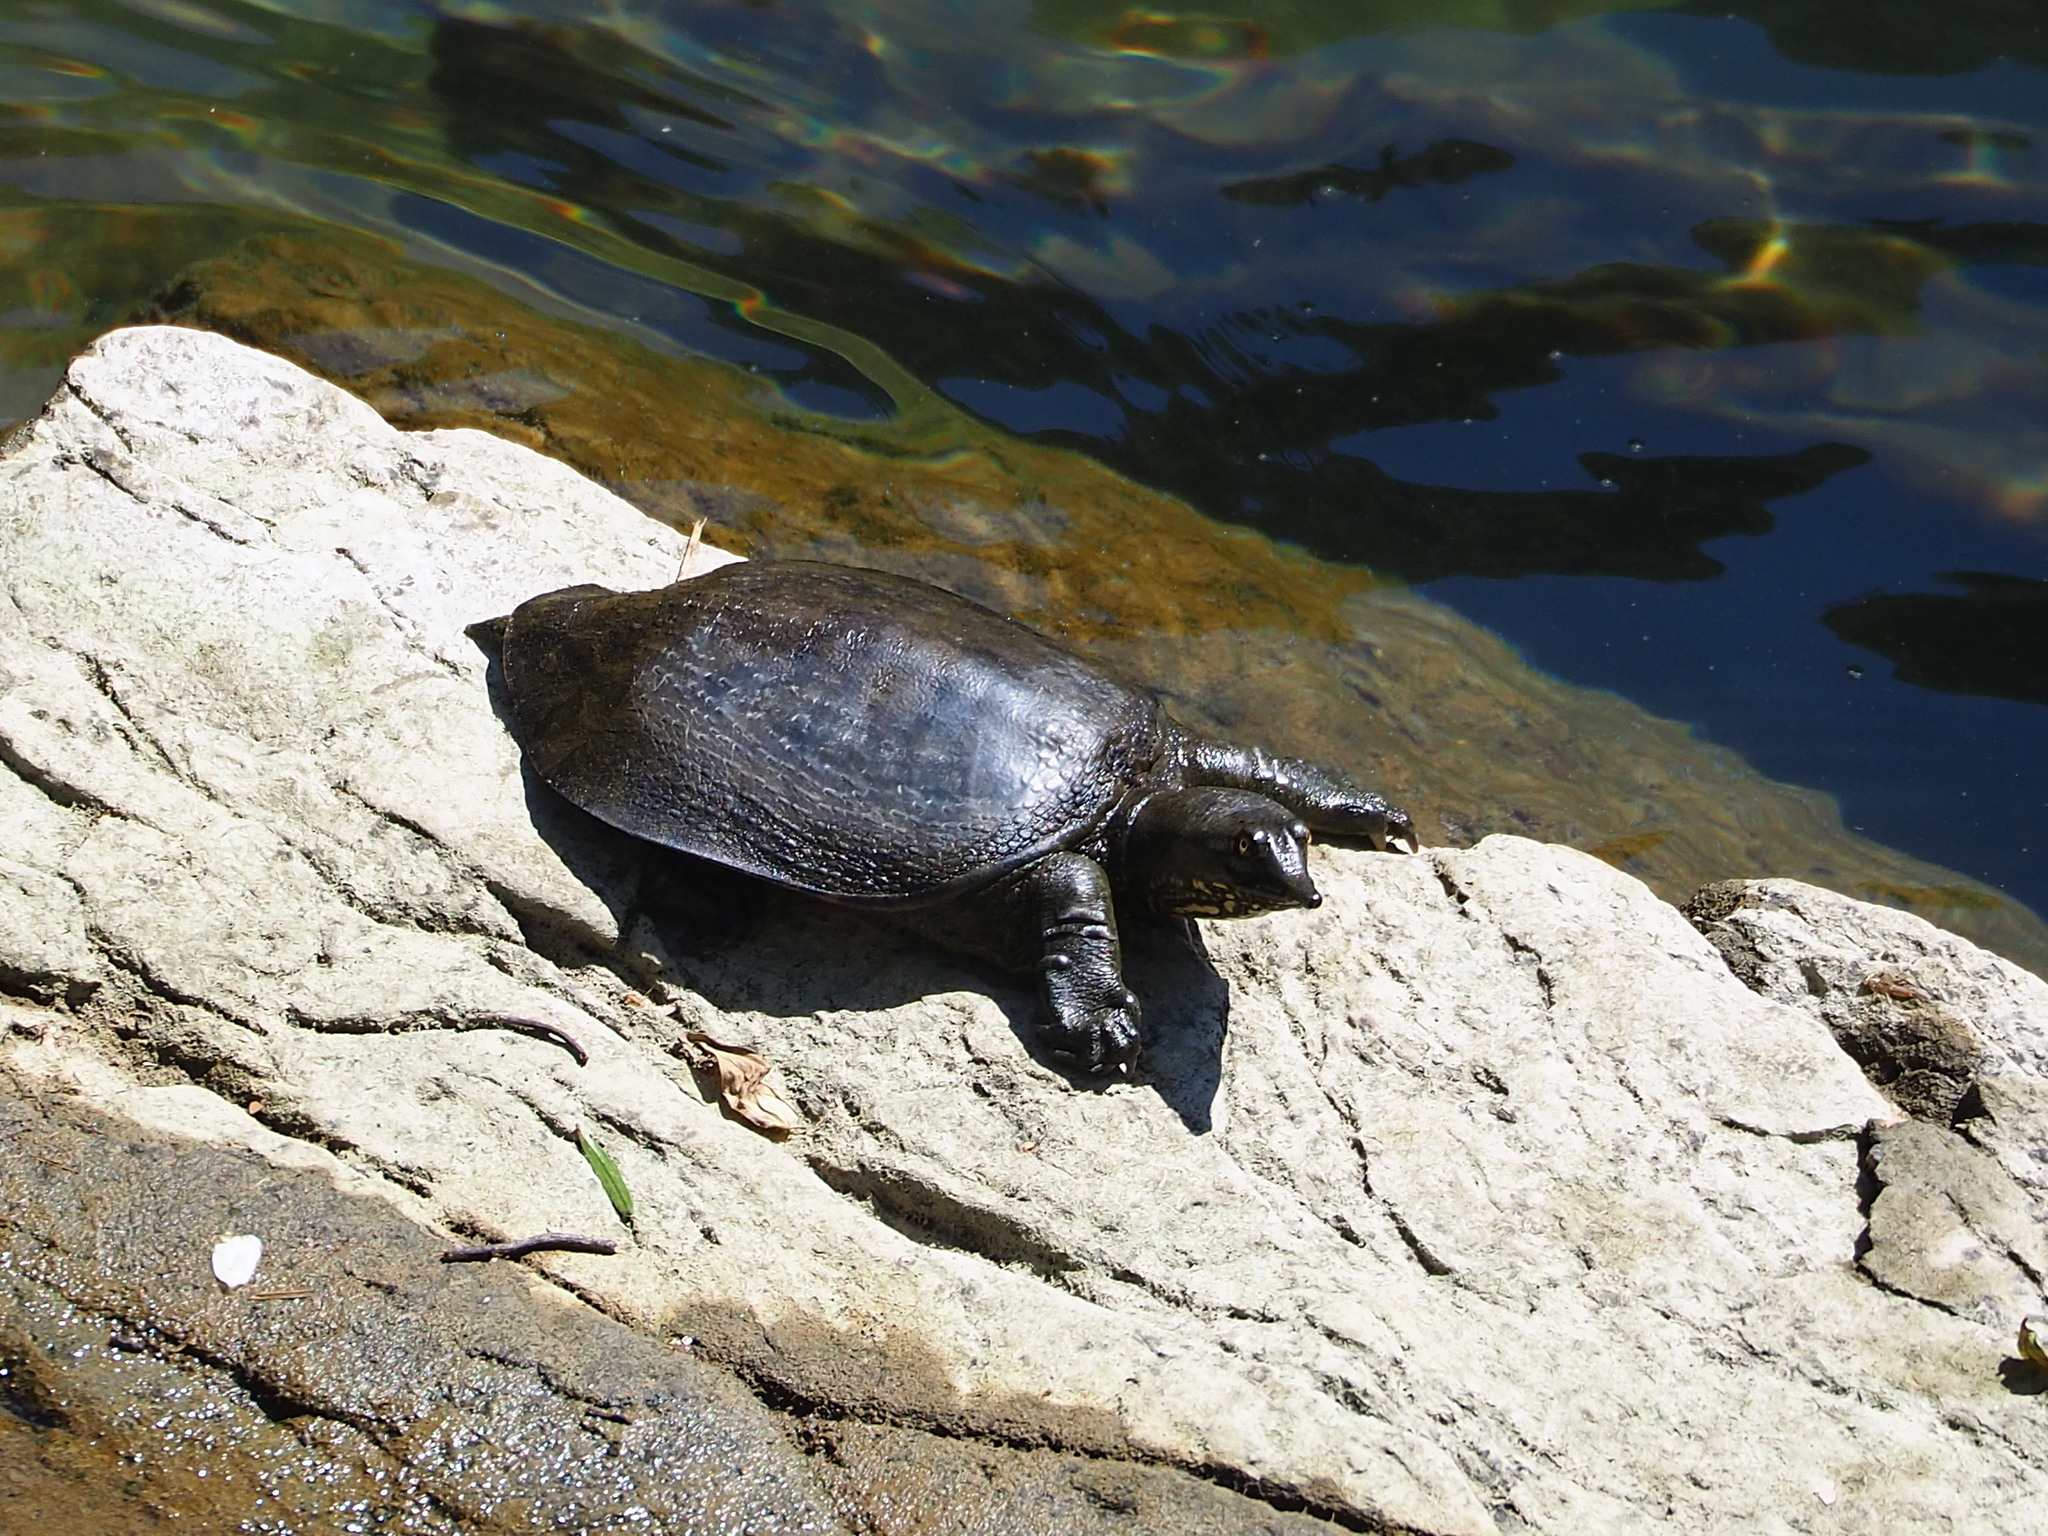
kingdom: Animalia
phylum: Chordata
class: Testudines
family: Trionychidae
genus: Pelodiscus
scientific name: Pelodiscus sinensis
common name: Chinese softshell turtle
